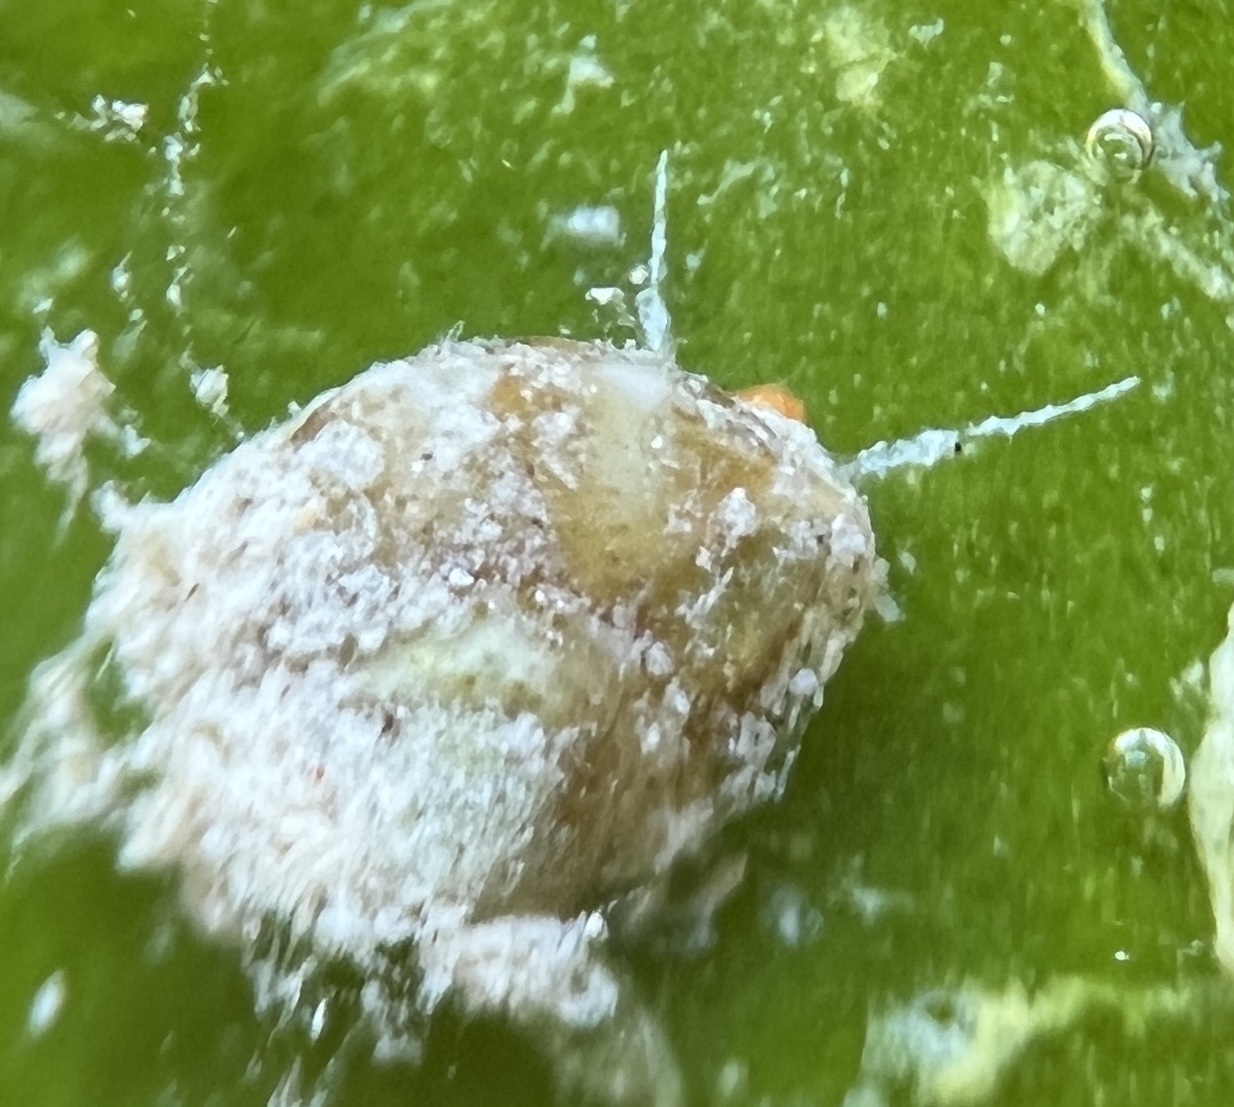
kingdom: Animalia
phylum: Mollusca
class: Gastropoda
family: Modulidae
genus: Modulus
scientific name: Modulus modulus
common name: Atlantic modulus
